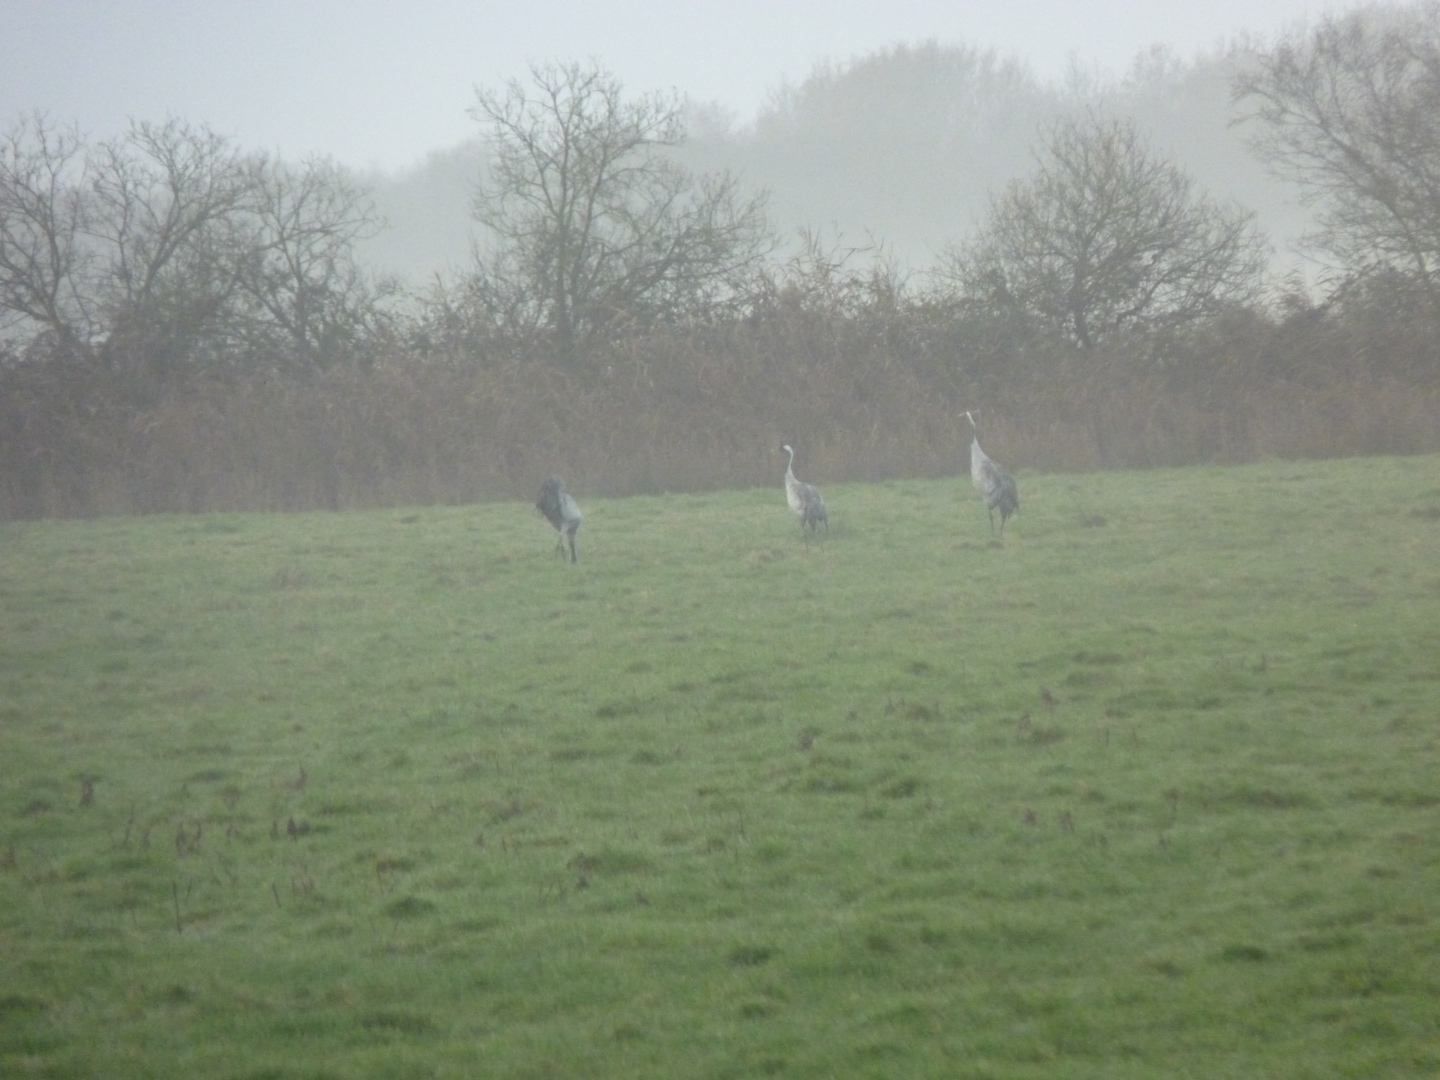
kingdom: Animalia
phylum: Chordata
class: Aves
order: Gruiformes
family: Gruidae
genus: Grus
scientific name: Grus grus
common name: Common crane
